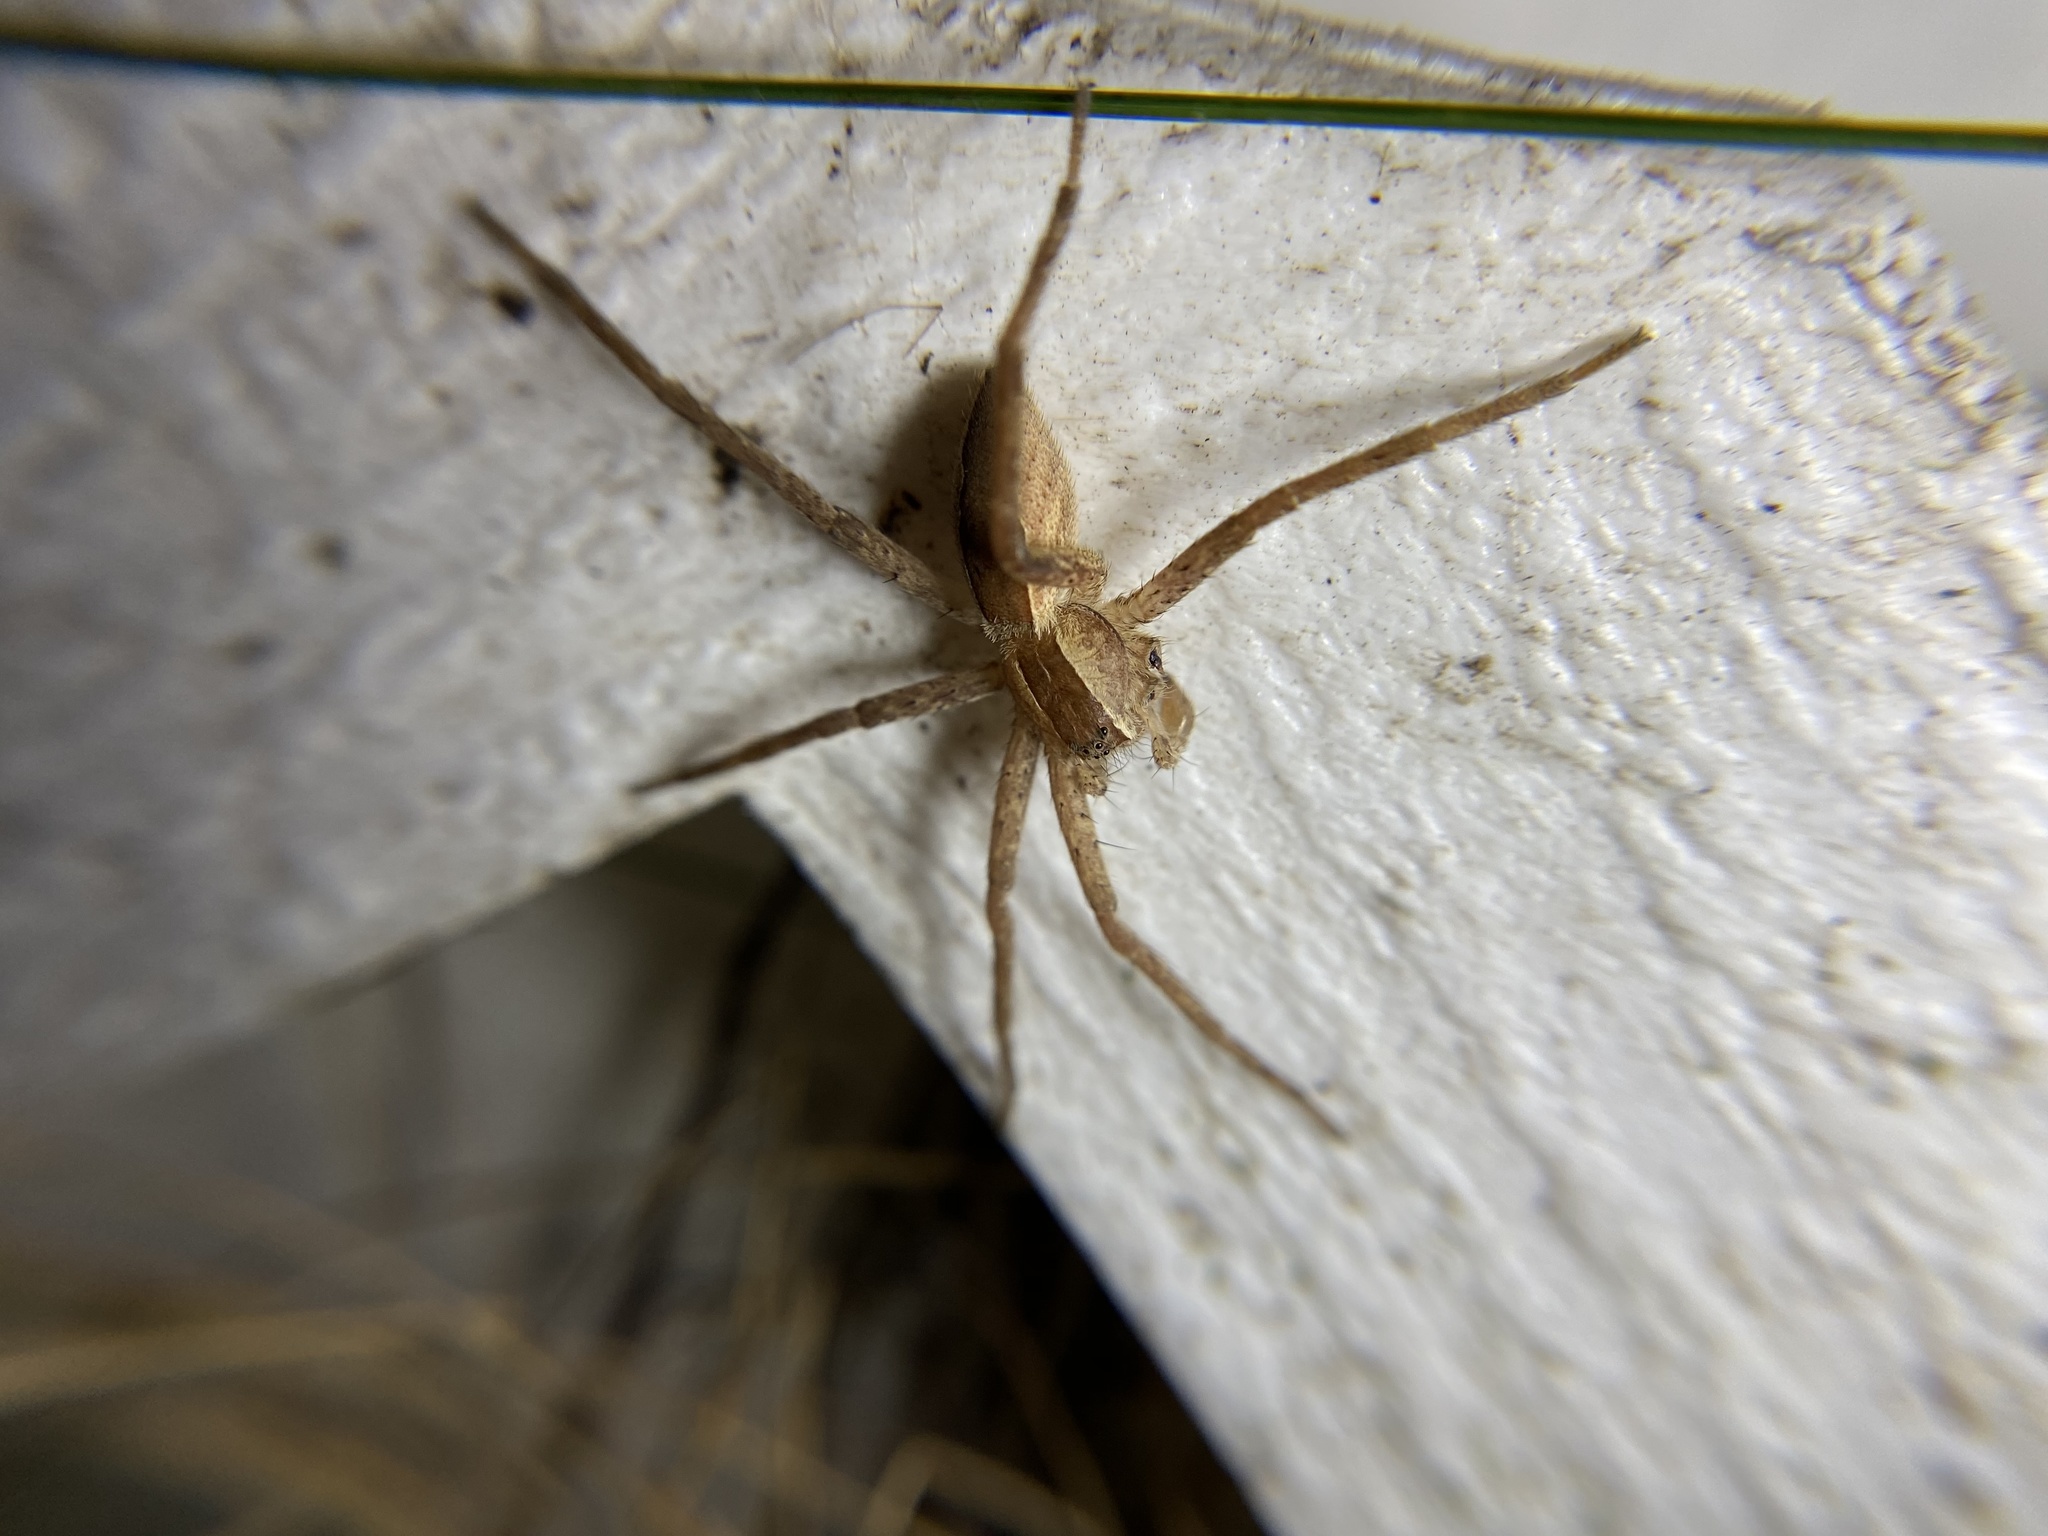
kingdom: Animalia
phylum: Arthropoda
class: Arachnida
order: Araneae
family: Pisauridae
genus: Pisaurina
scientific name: Pisaurina mira
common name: American nursery web spider
